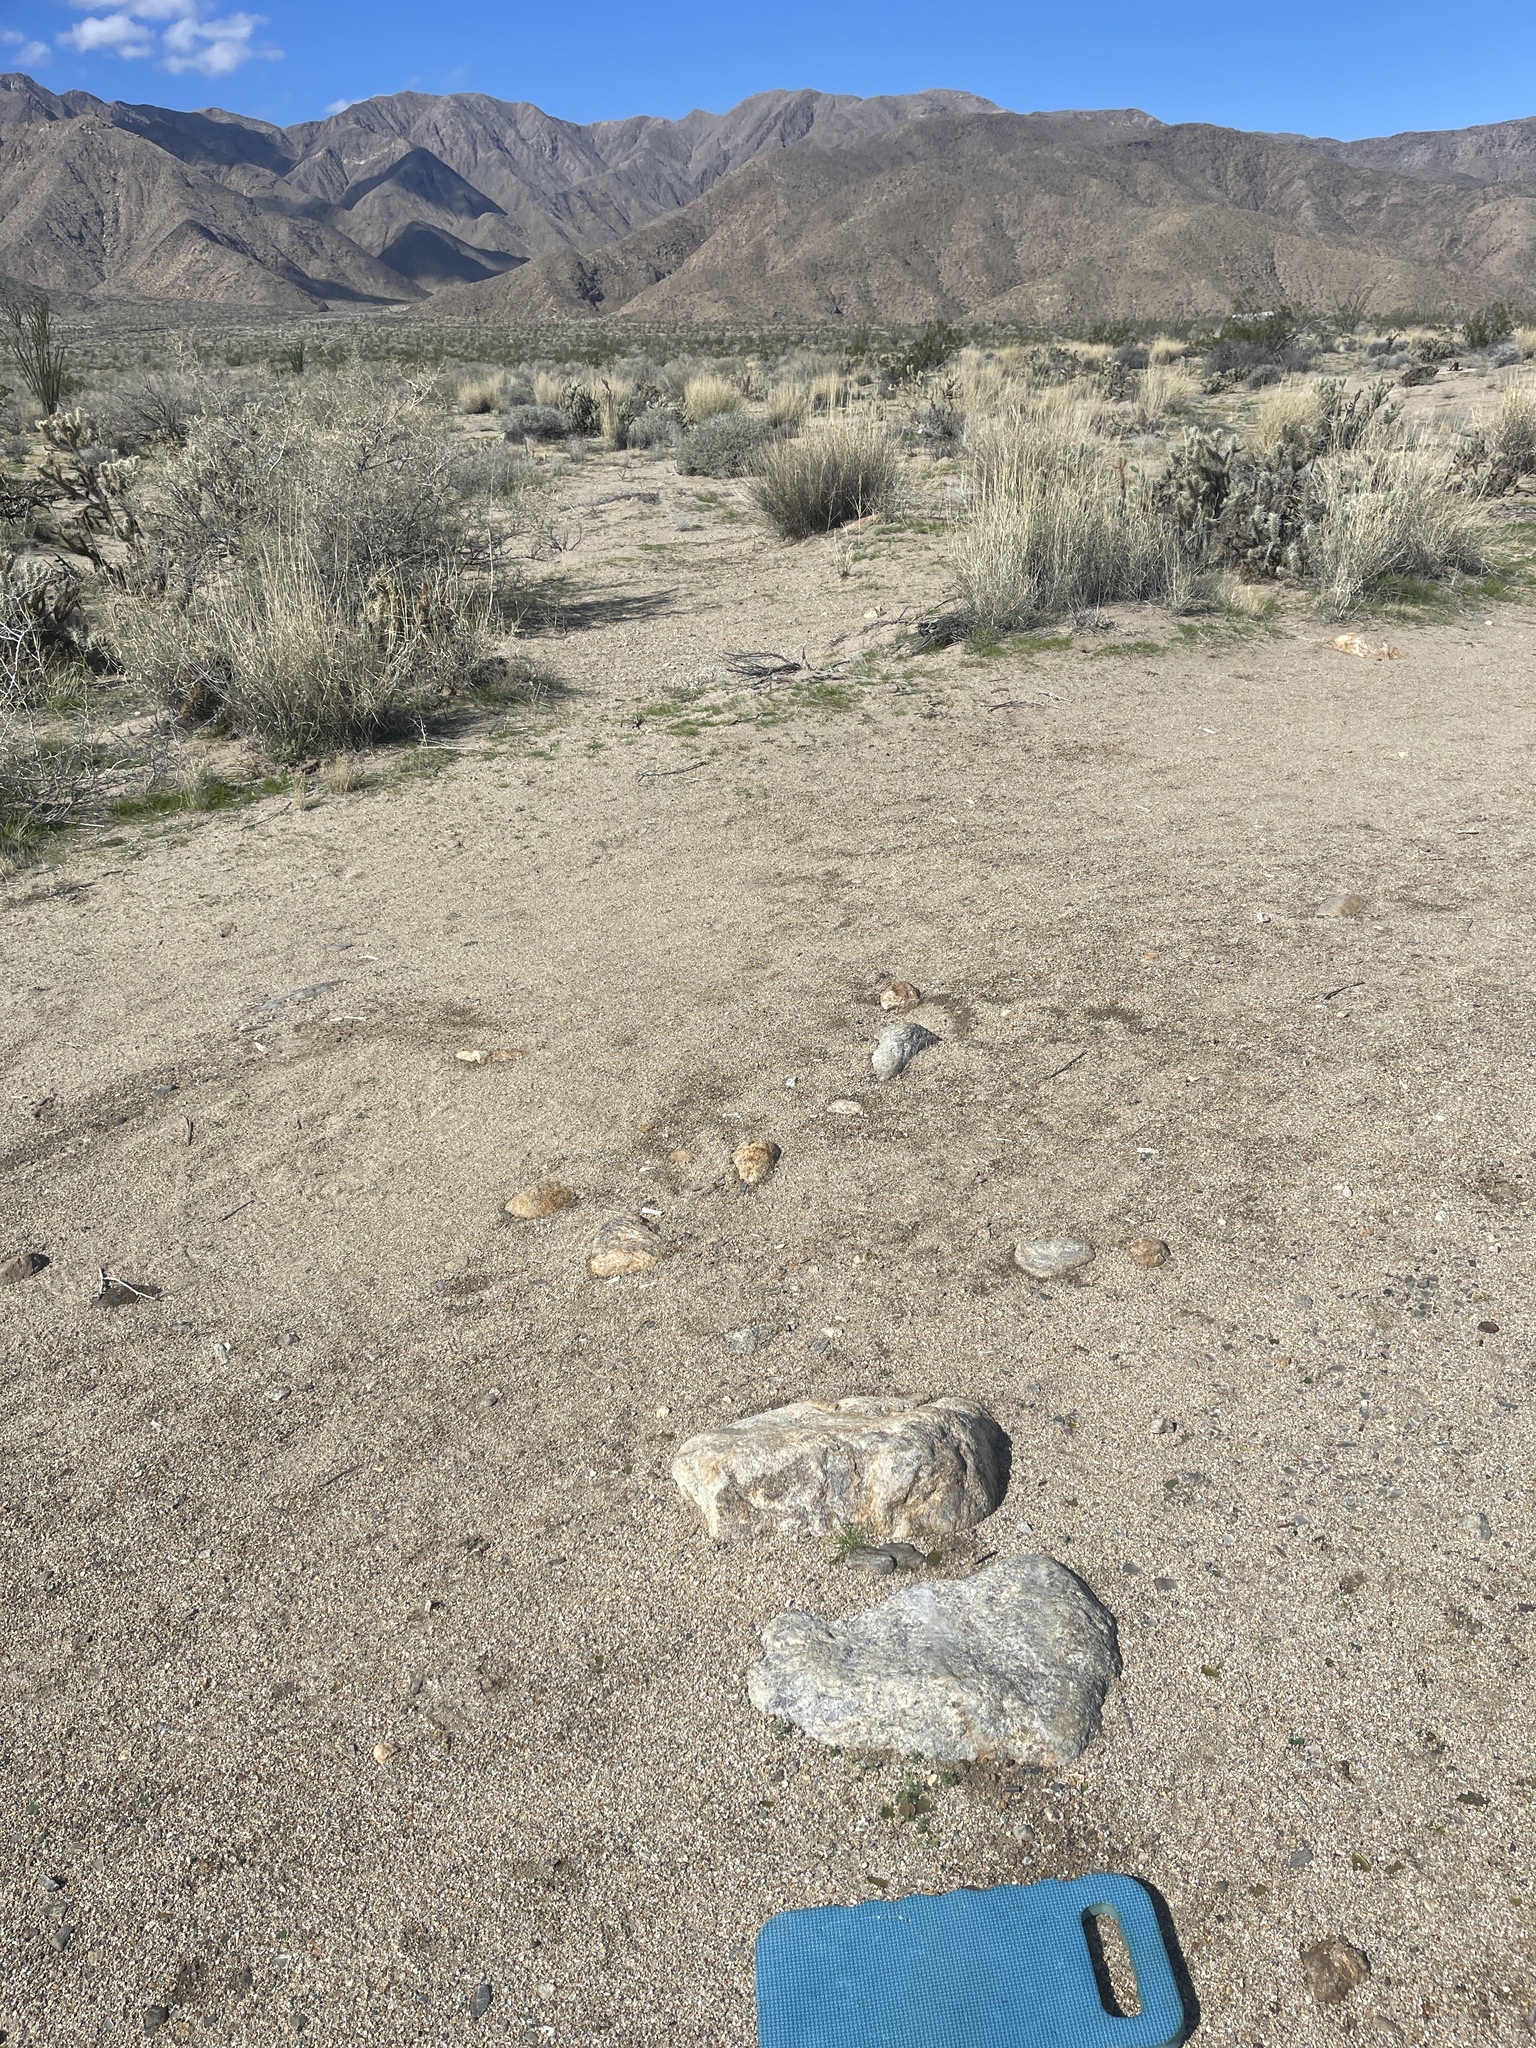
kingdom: Plantae
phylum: Tracheophyta
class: Magnoliopsida
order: Boraginales
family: Boraginaceae
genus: Eremocarya
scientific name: Eremocarya micrantha
